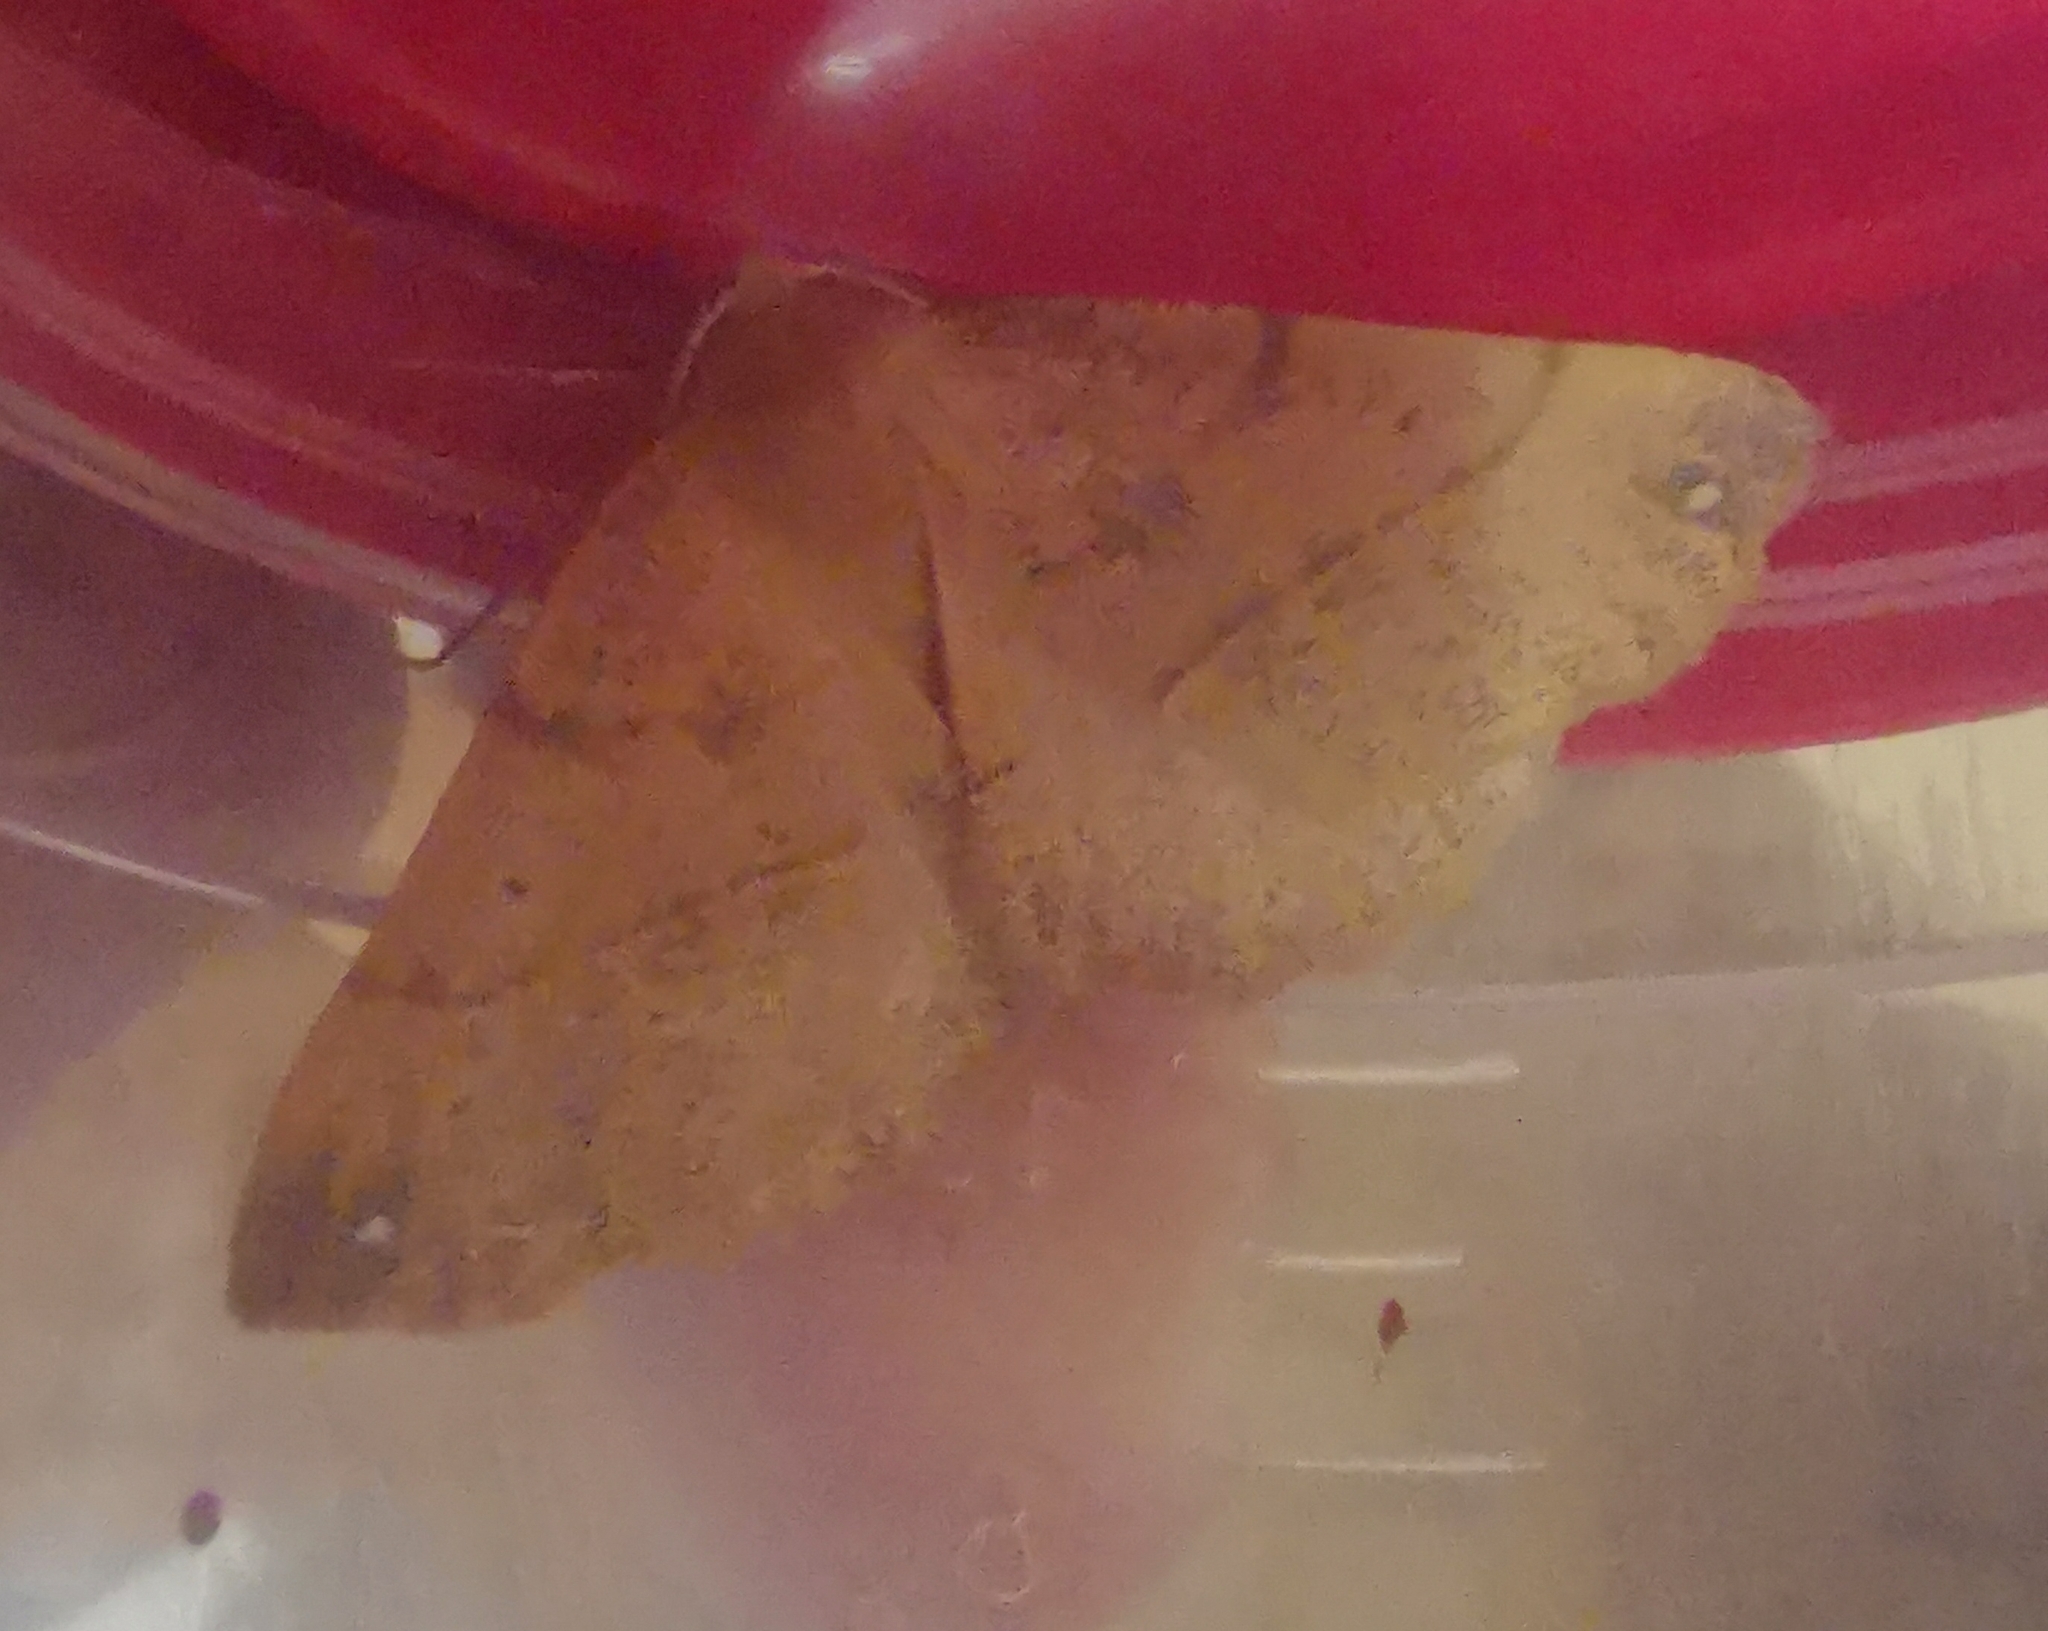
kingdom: Animalia
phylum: Arthropoda
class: Insecta
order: Lepidoptera
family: Geometridae
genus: Colotois
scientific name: Colotois pennaria
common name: Feathered thorn
